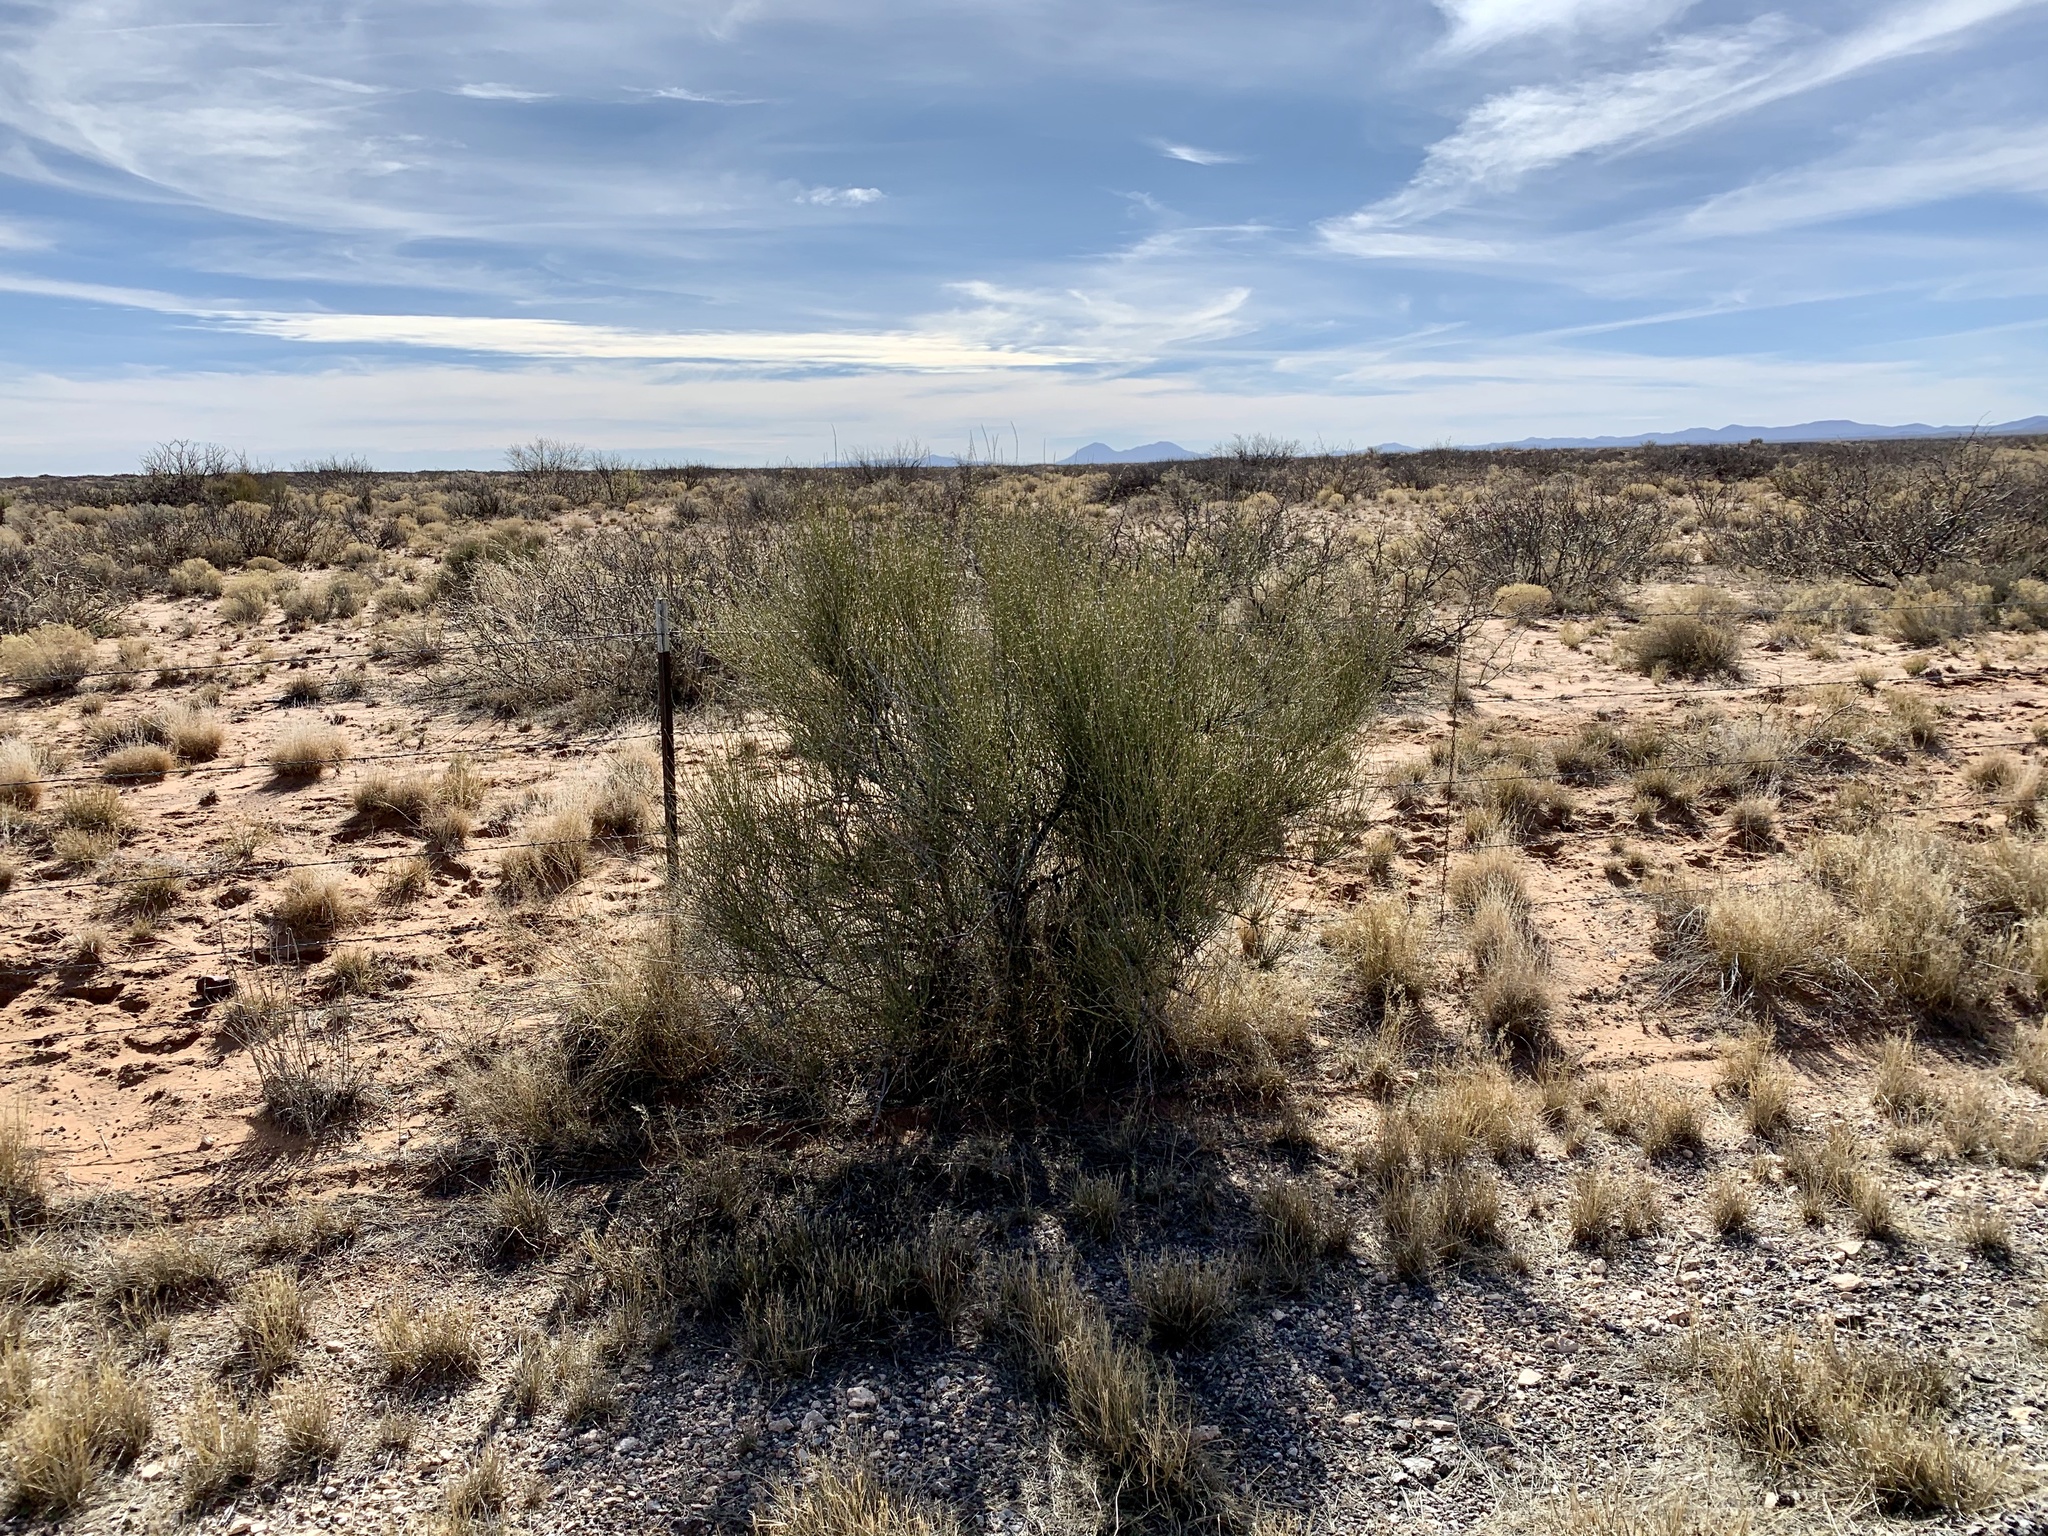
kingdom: Plantae
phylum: Tracheophyta
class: Gnetopsida
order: Ephedrales
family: Ephedraceae
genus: Ephedra
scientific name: Ephedra trifurca
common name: Mexican-tea
